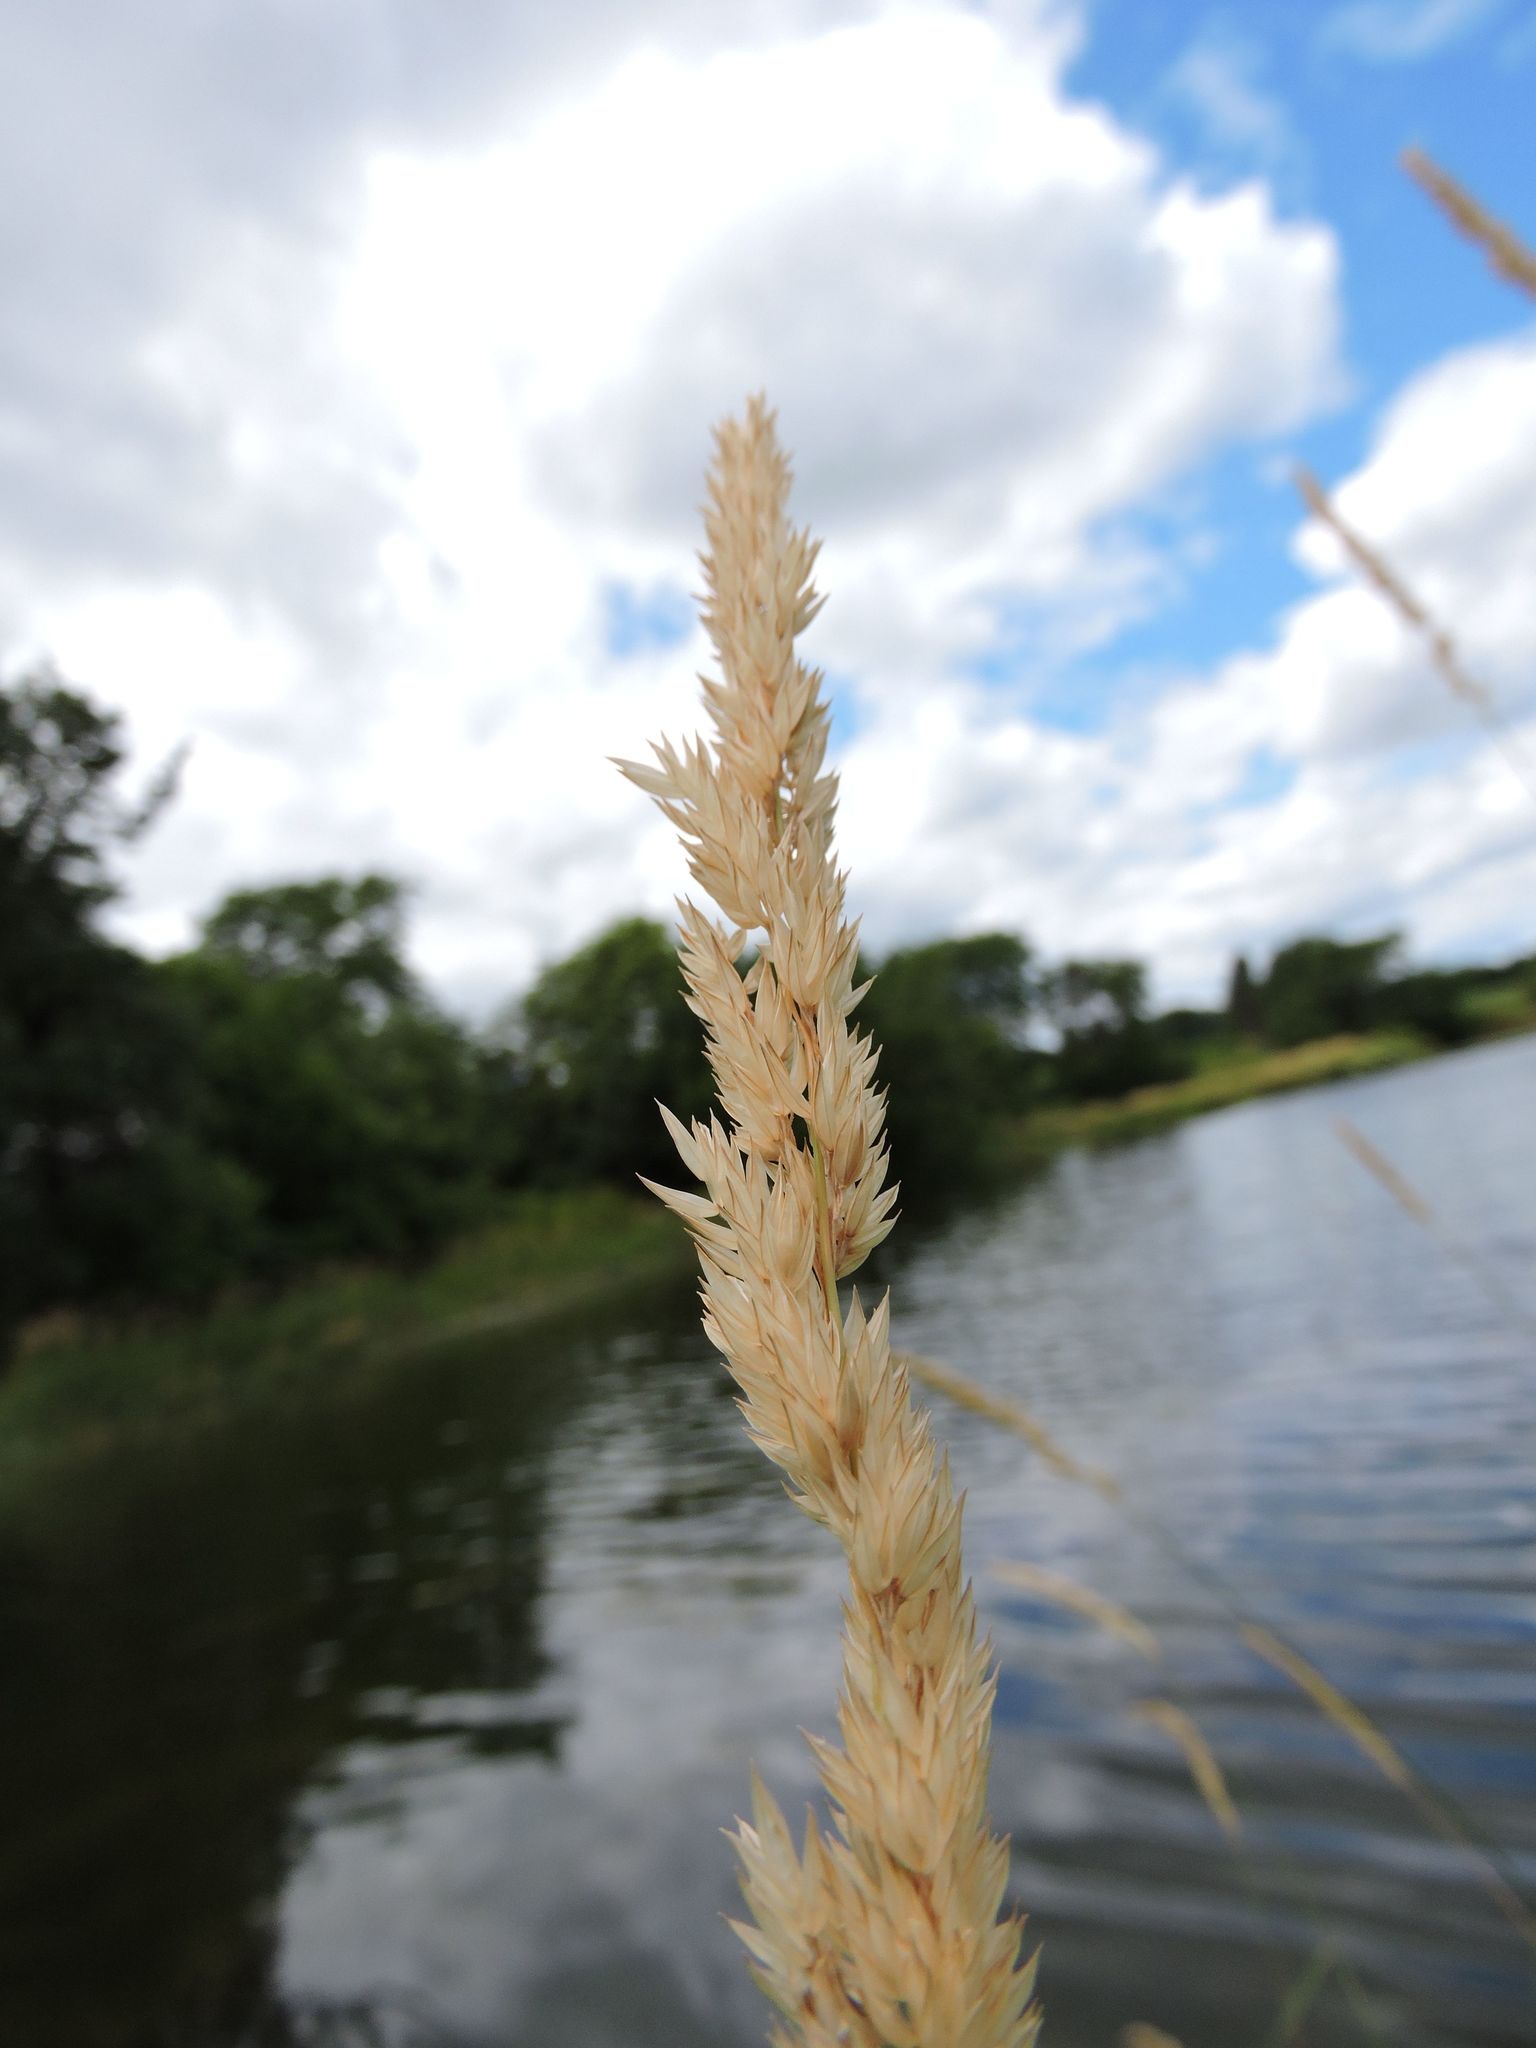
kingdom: Plantae
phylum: Tracheophyta
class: Liliopsida
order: Poales
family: Poaceae
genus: Phalaris
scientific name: Phalaris arundinacea
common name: Reed canary-grass
